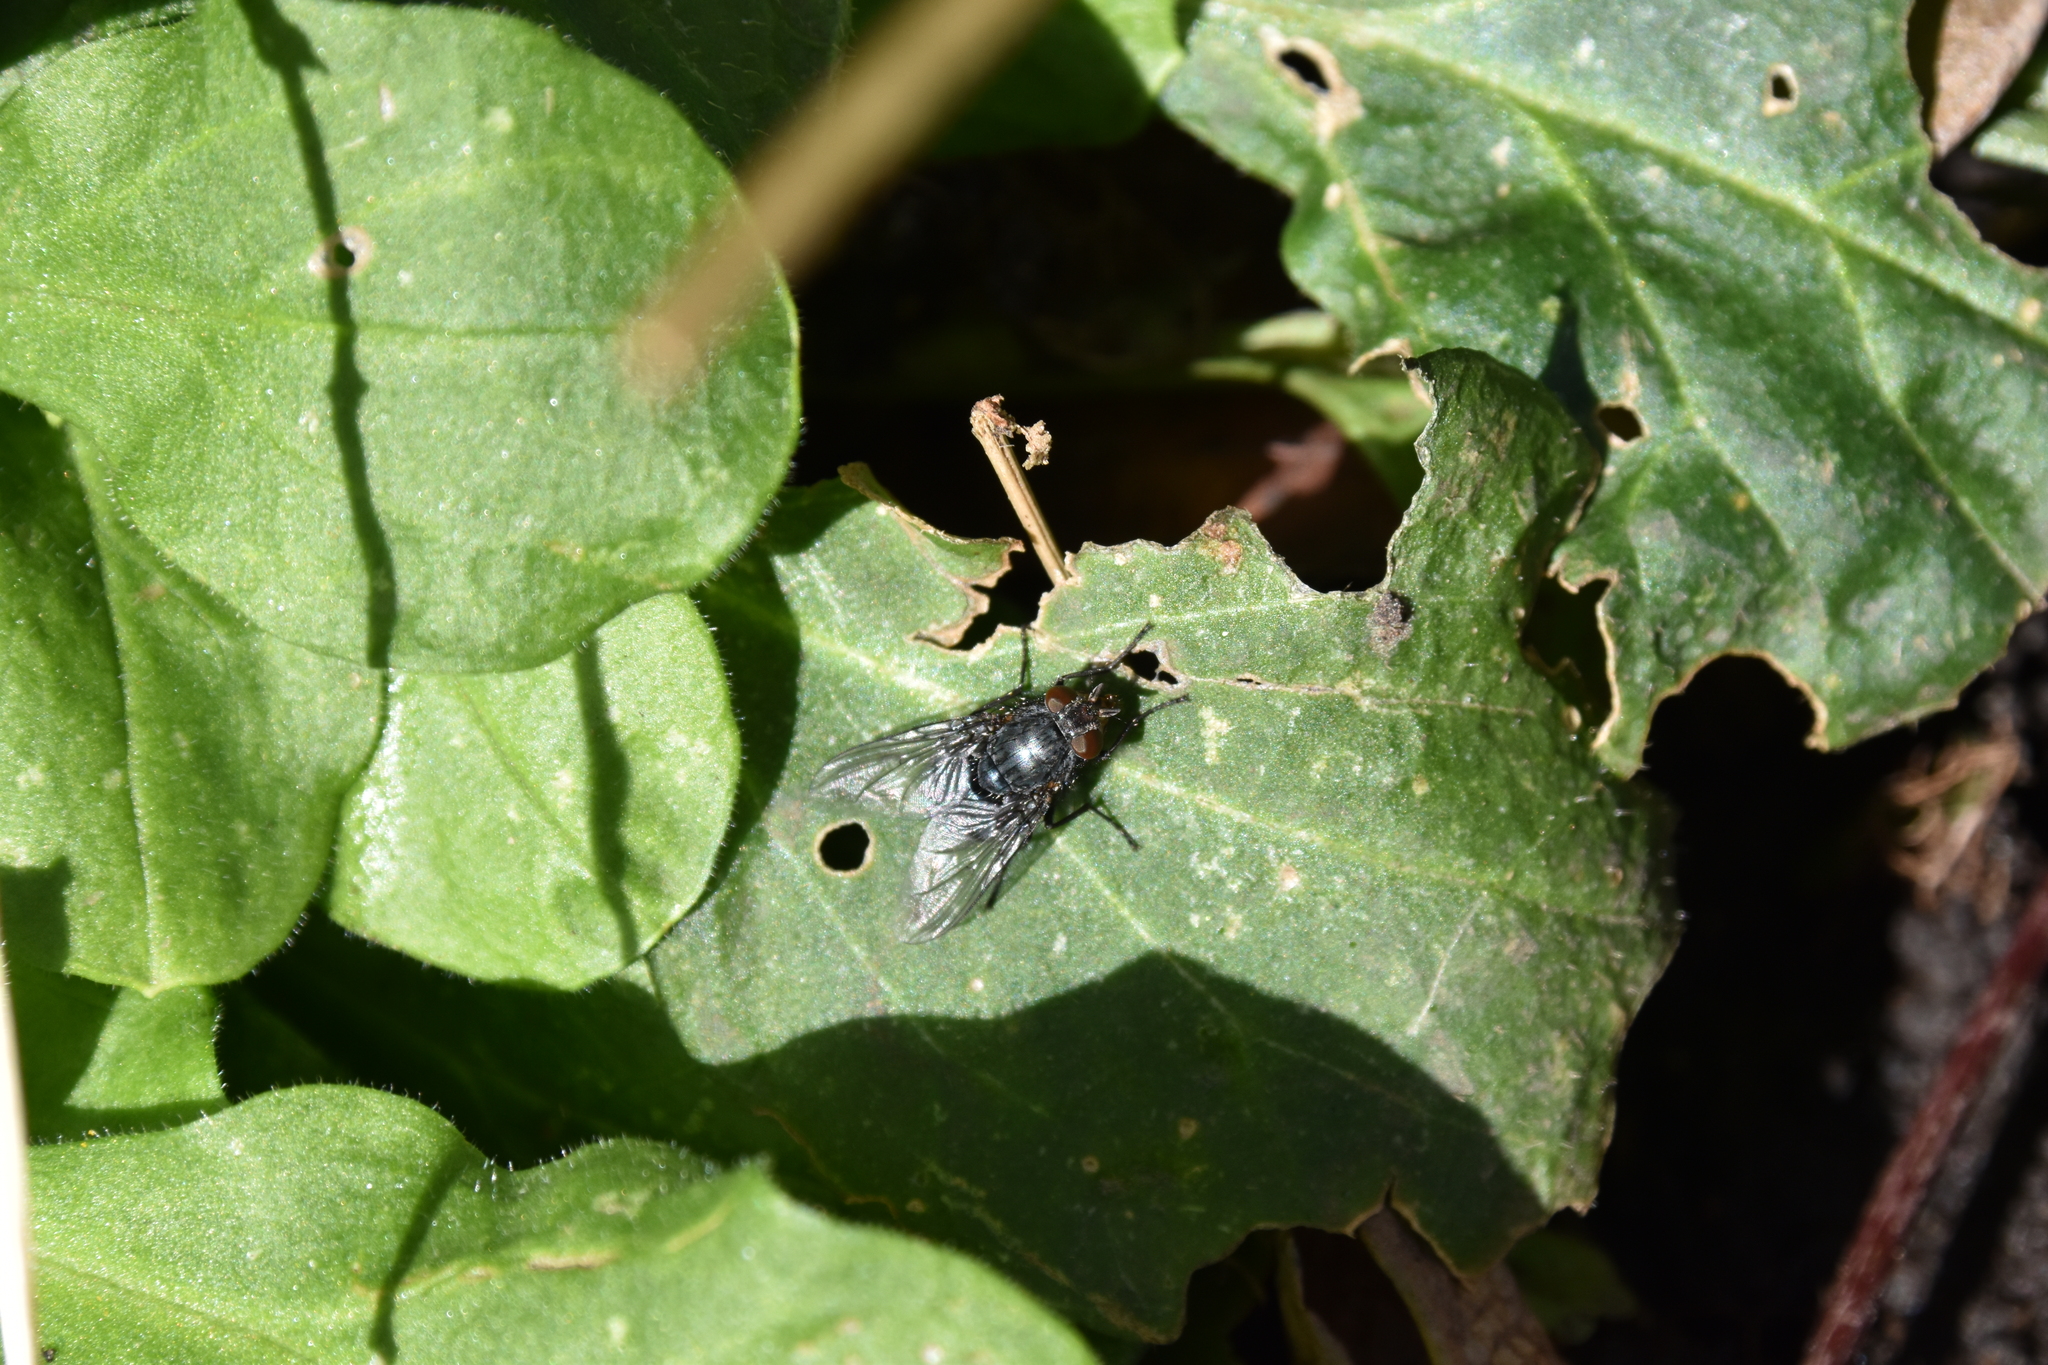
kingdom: Animalia
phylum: Arthropoda
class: Insecta
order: Diptera
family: Calliphoridae
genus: Calliphora
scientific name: Calliphora
